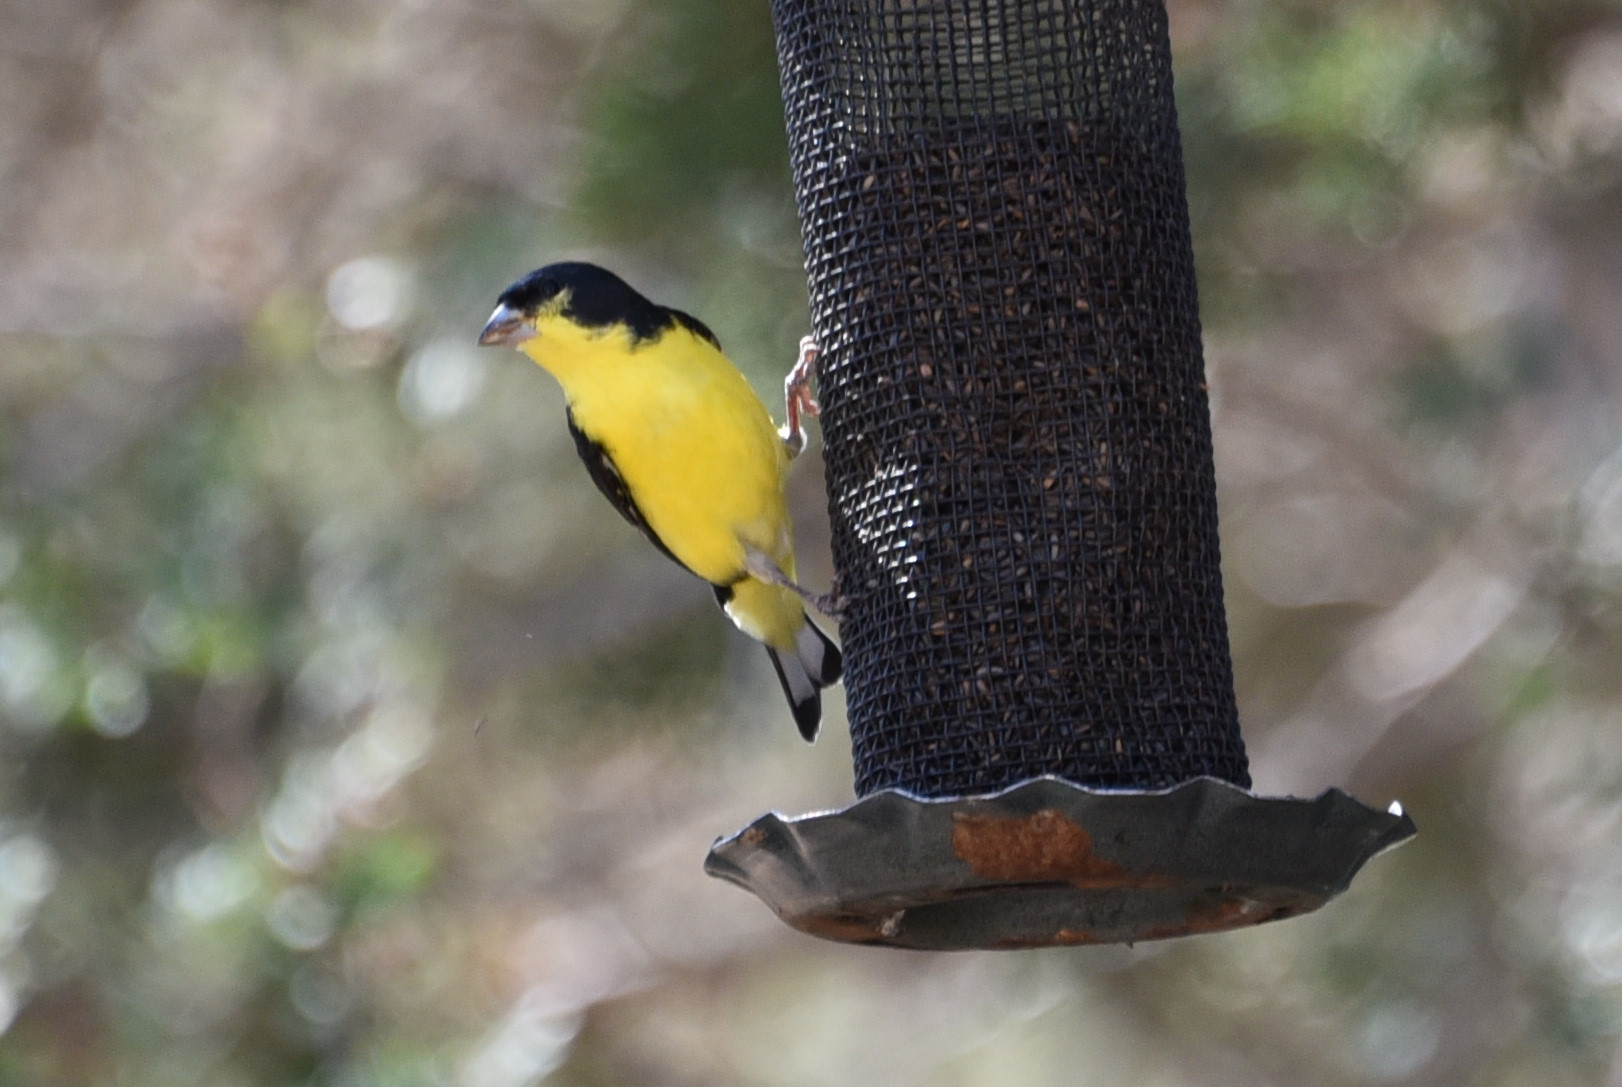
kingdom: Animalia
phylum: Chordata
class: Aves
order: Passeriformes
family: Fringillidae
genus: Spinus
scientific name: Spinus psaltria
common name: Lesser goldfinch
